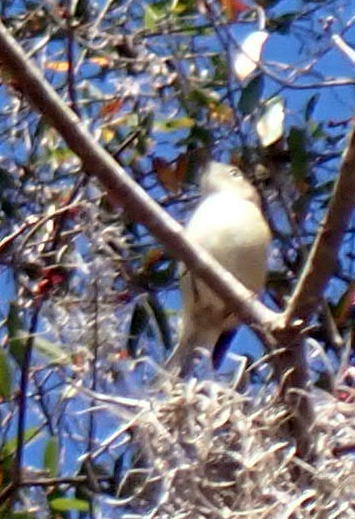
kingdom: Animalia
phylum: Chordata
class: Aves
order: Passeriformes
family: Regulidae
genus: Regulus
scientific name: Regulus calendula
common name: Ruby-crowned kinglet
